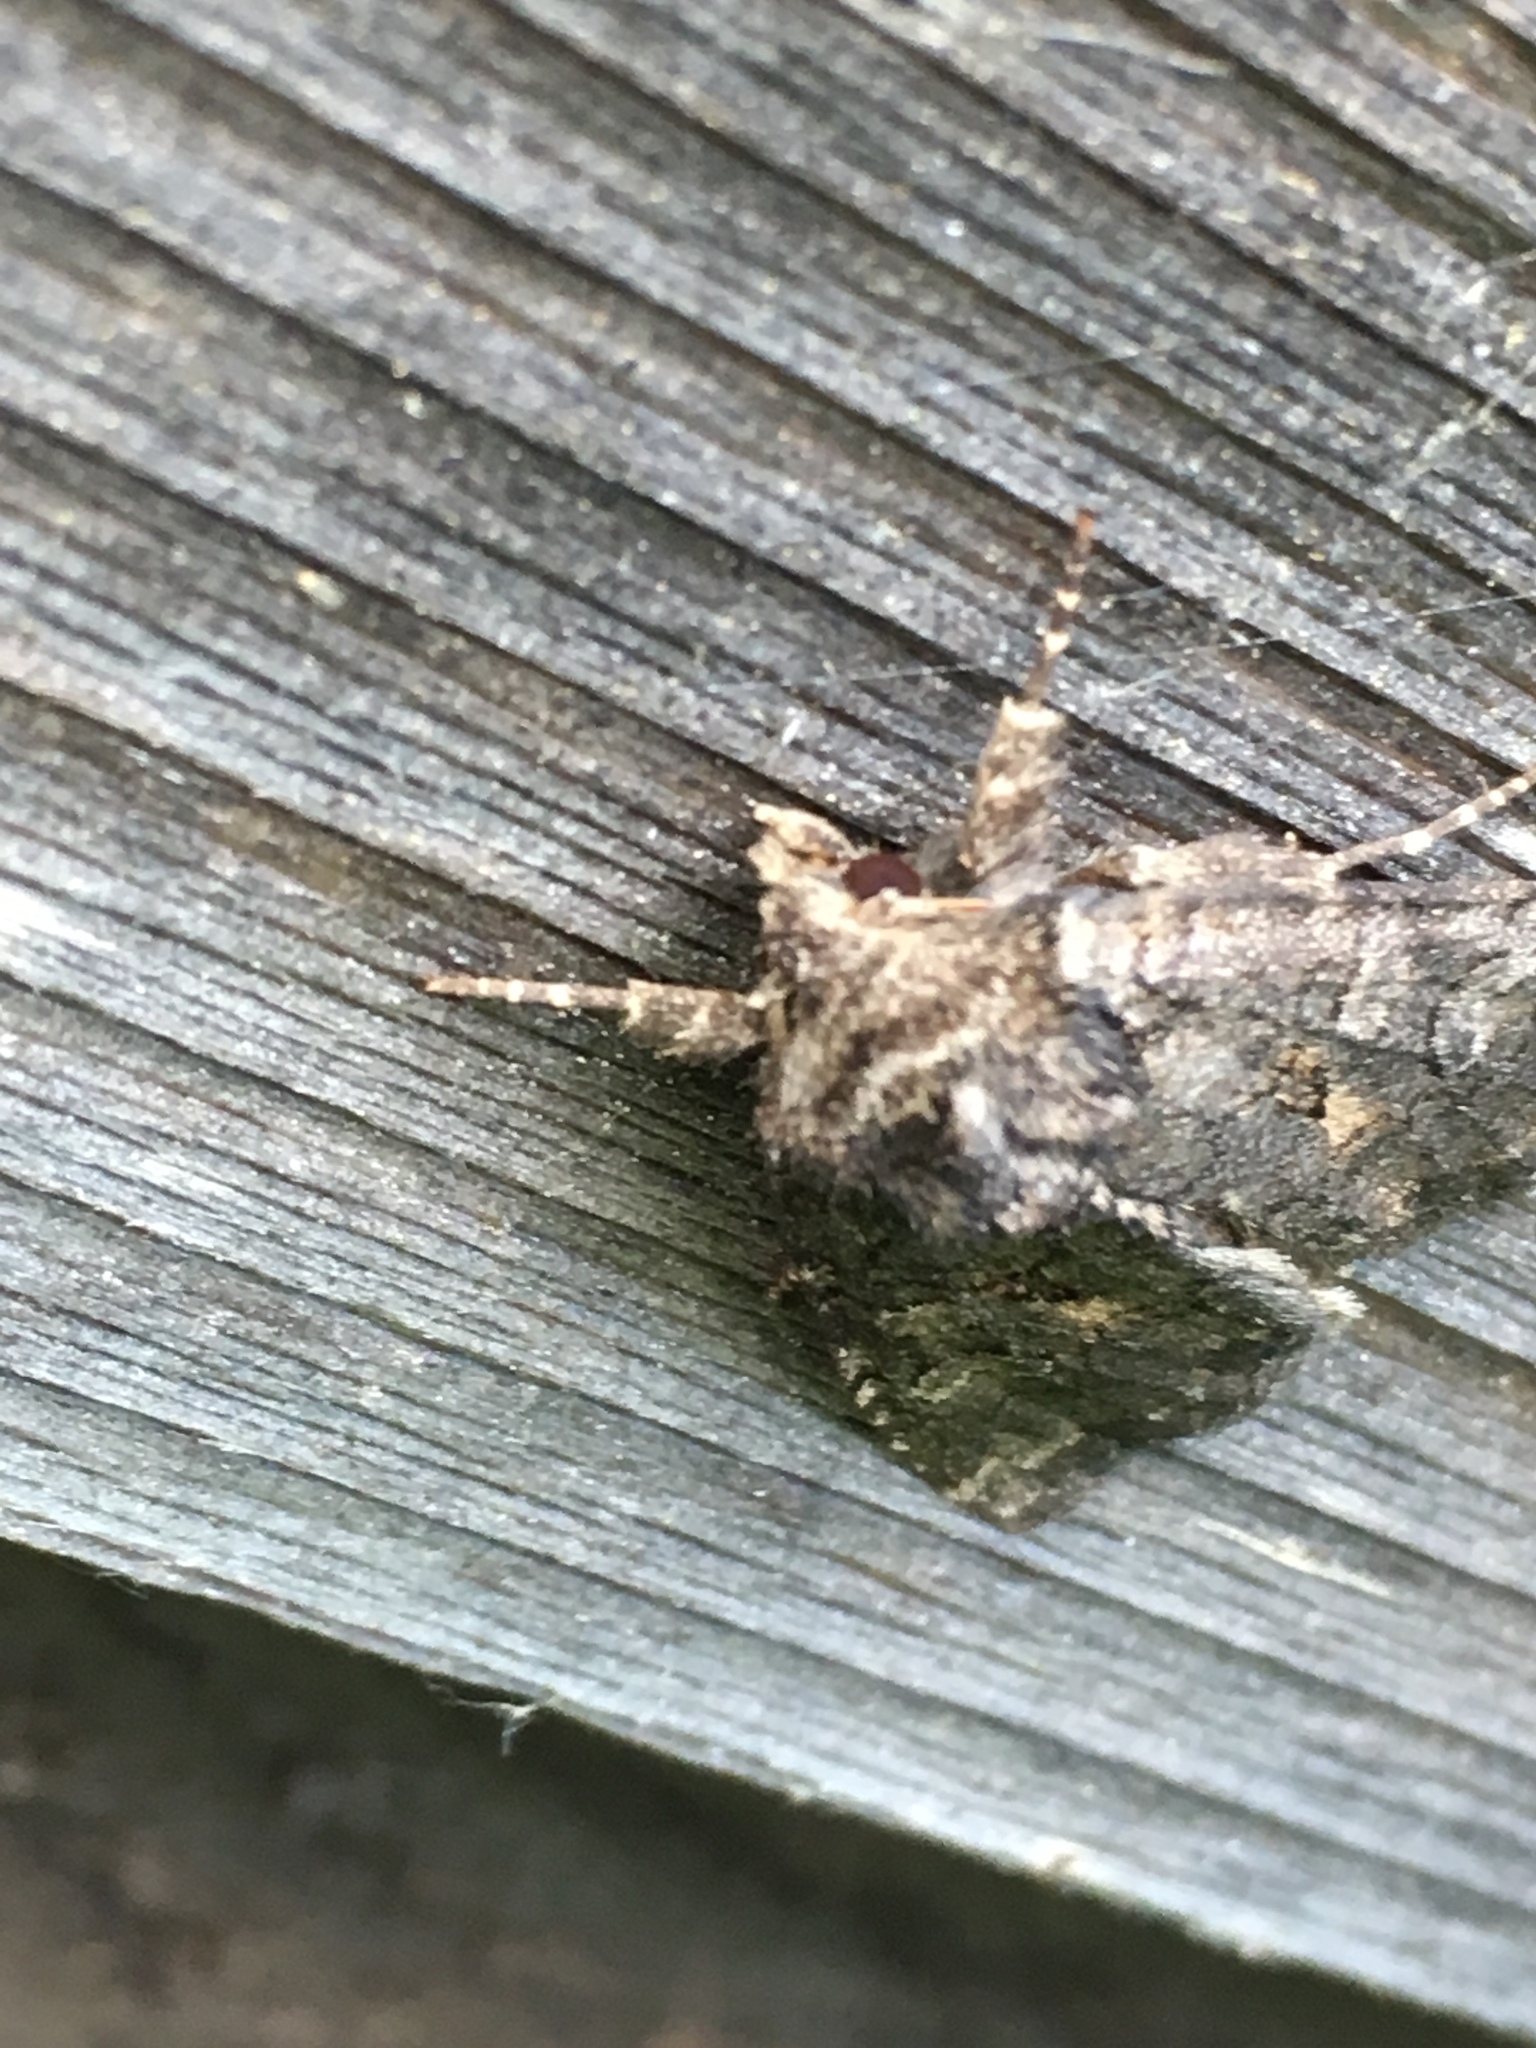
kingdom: Animalia
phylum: Arthropoda
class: Insecta
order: Lepidoptera
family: Noctuidae
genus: Orthodes
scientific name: Orthodes detracta
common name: Disparaged arches moth
